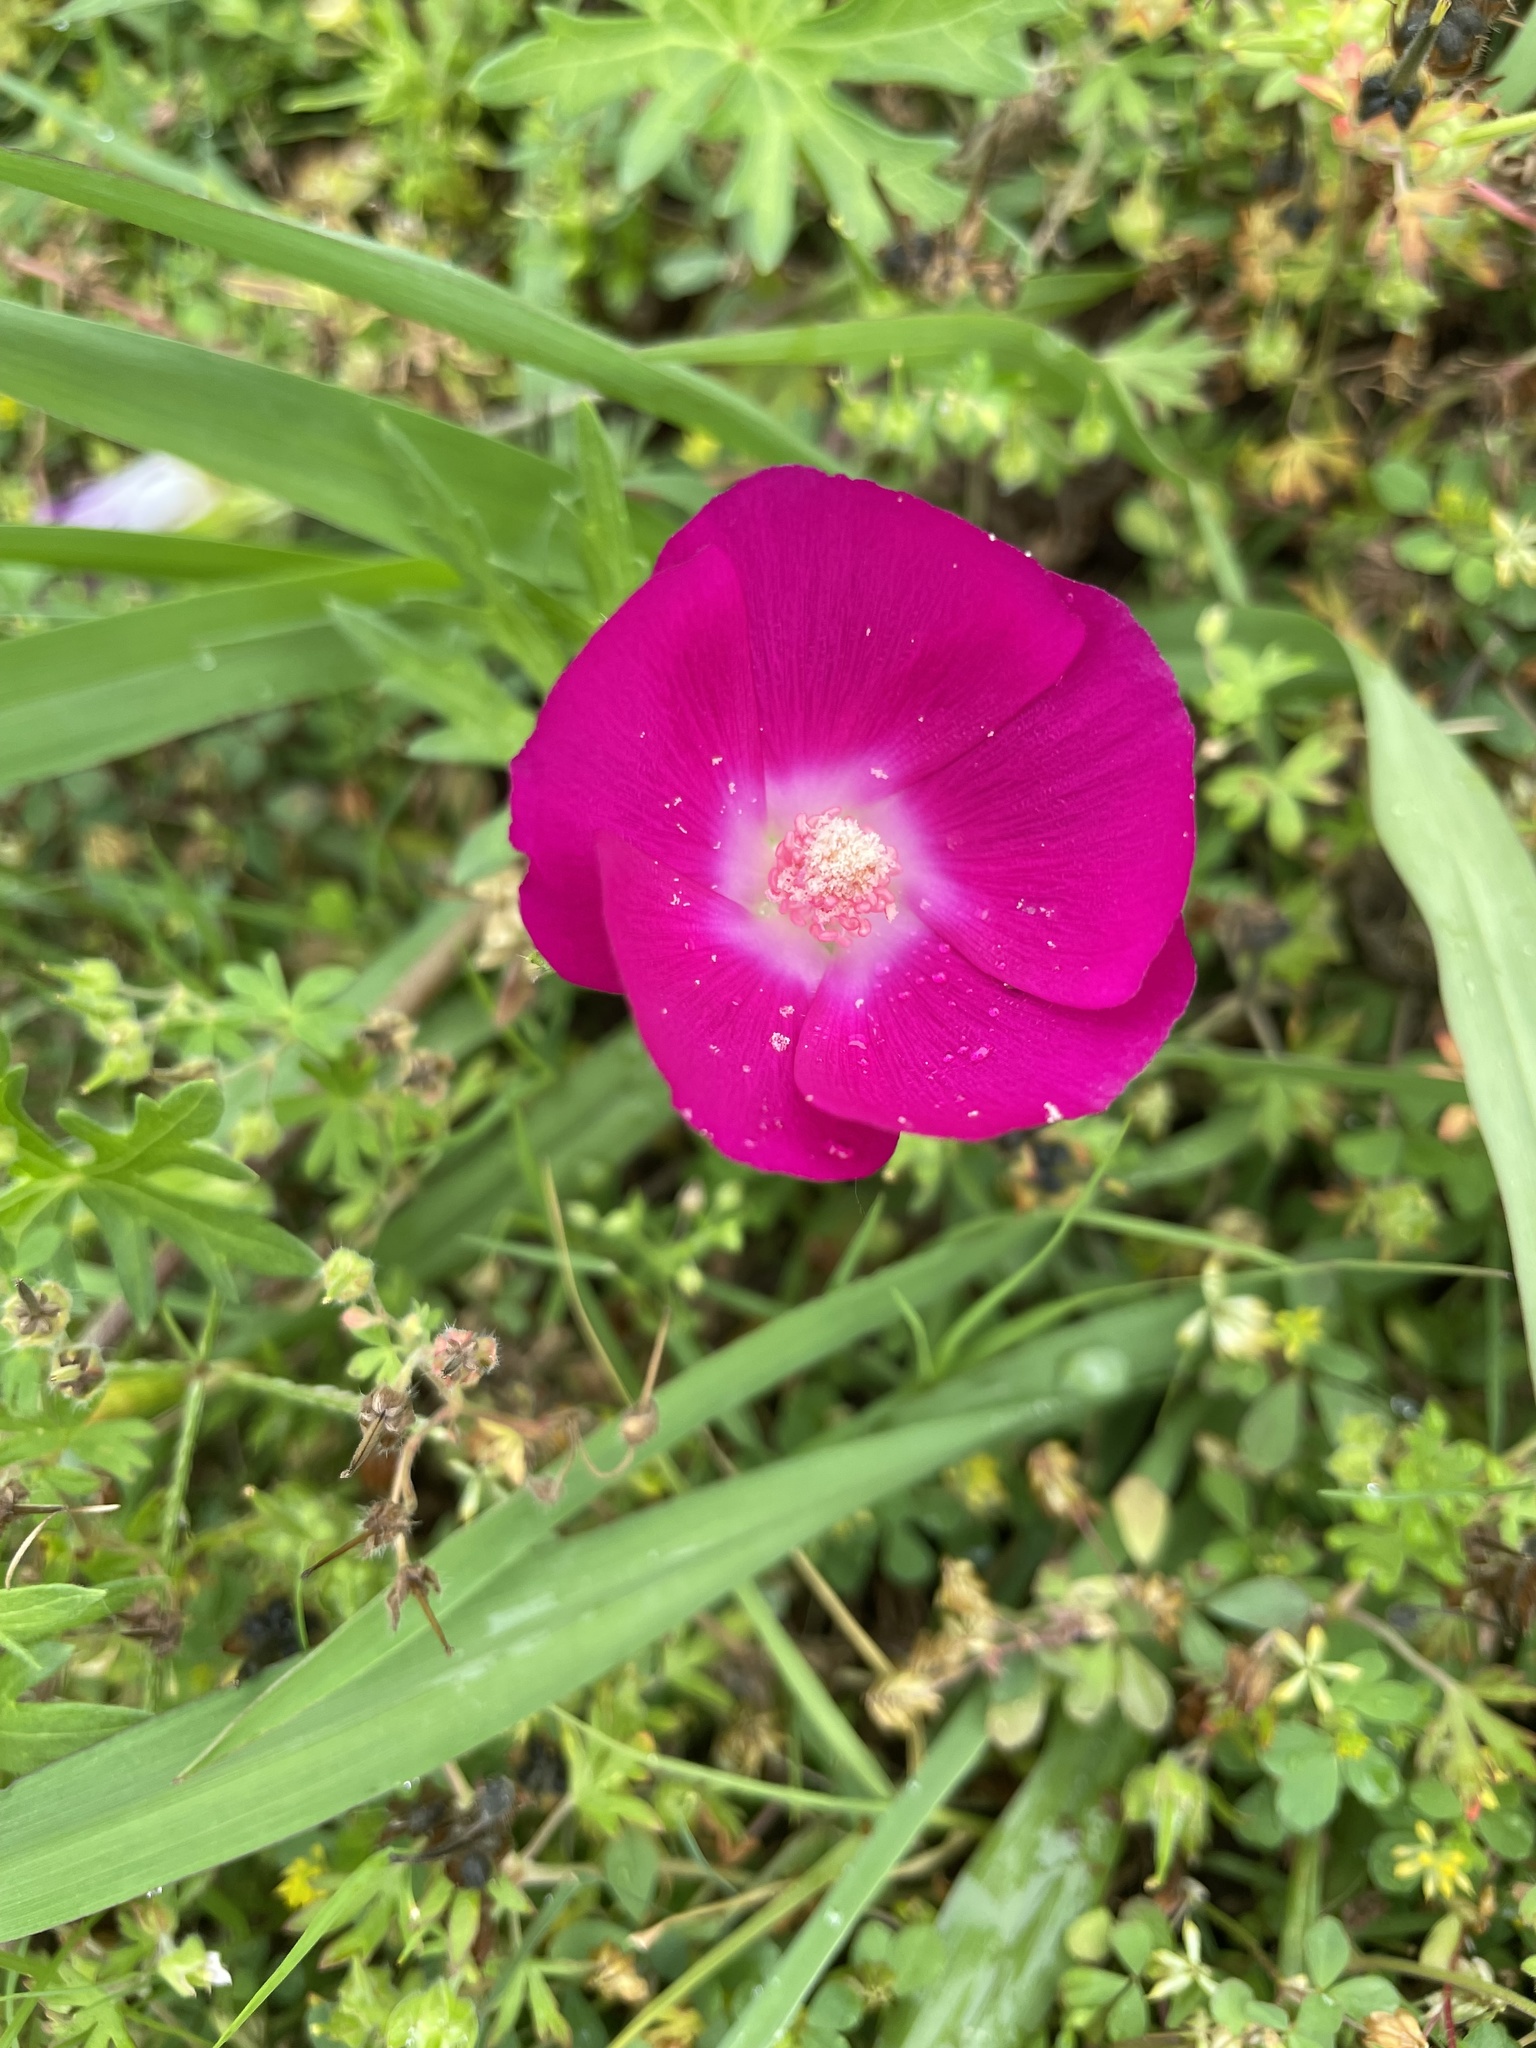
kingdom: Plantae
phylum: Tracheophyta
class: Magnoliopsida
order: Malvales
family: Malvaceae
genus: Callirhoe
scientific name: Callirhoe involucrata
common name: Purple poppy-mallow
